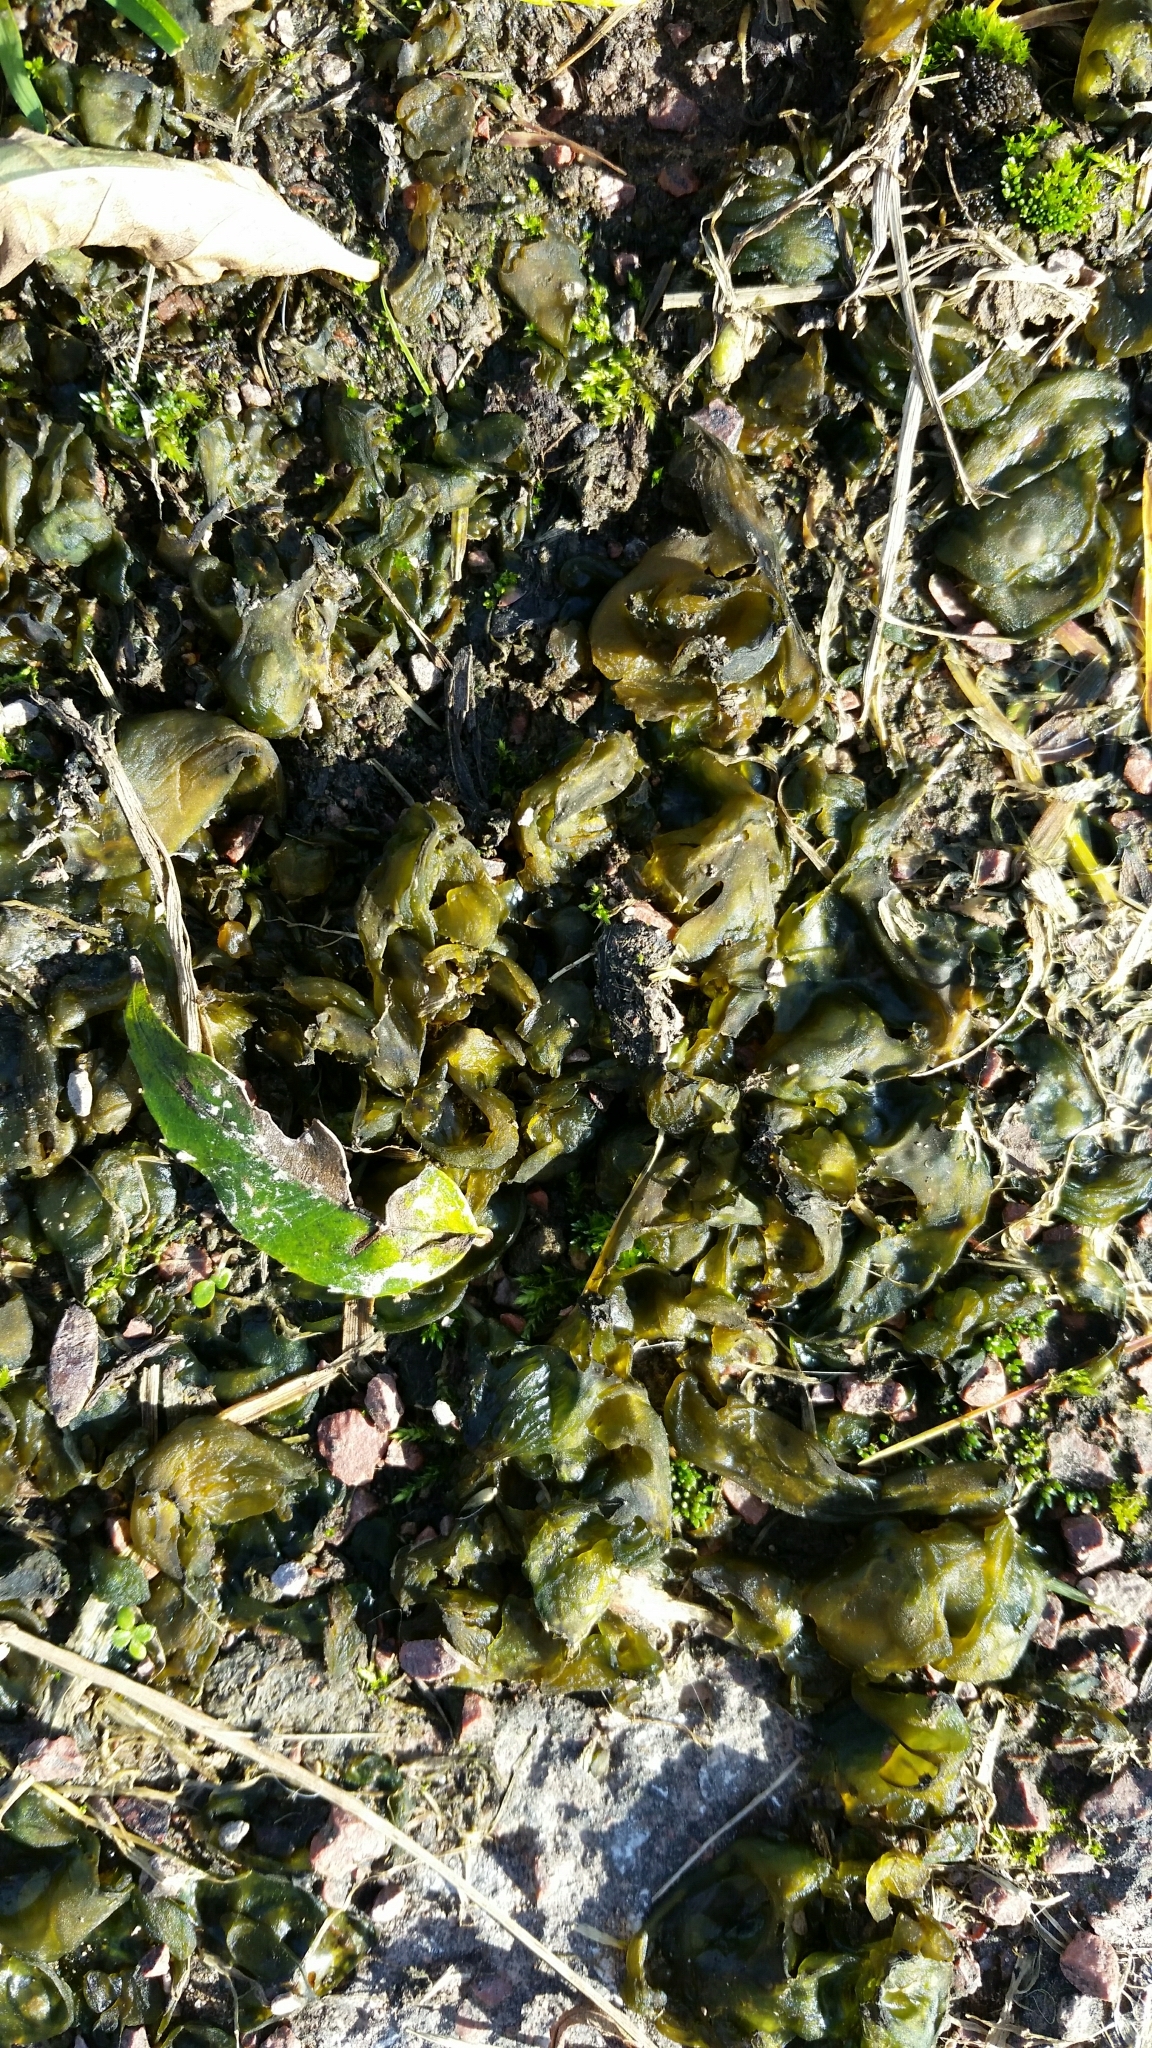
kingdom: Bacteria
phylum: Cyanobacteria
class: Cyanobacteriia
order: Cyanobacteriales
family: Nostocaceae
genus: Nostoc
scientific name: Nostoc commune
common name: Star jelly
